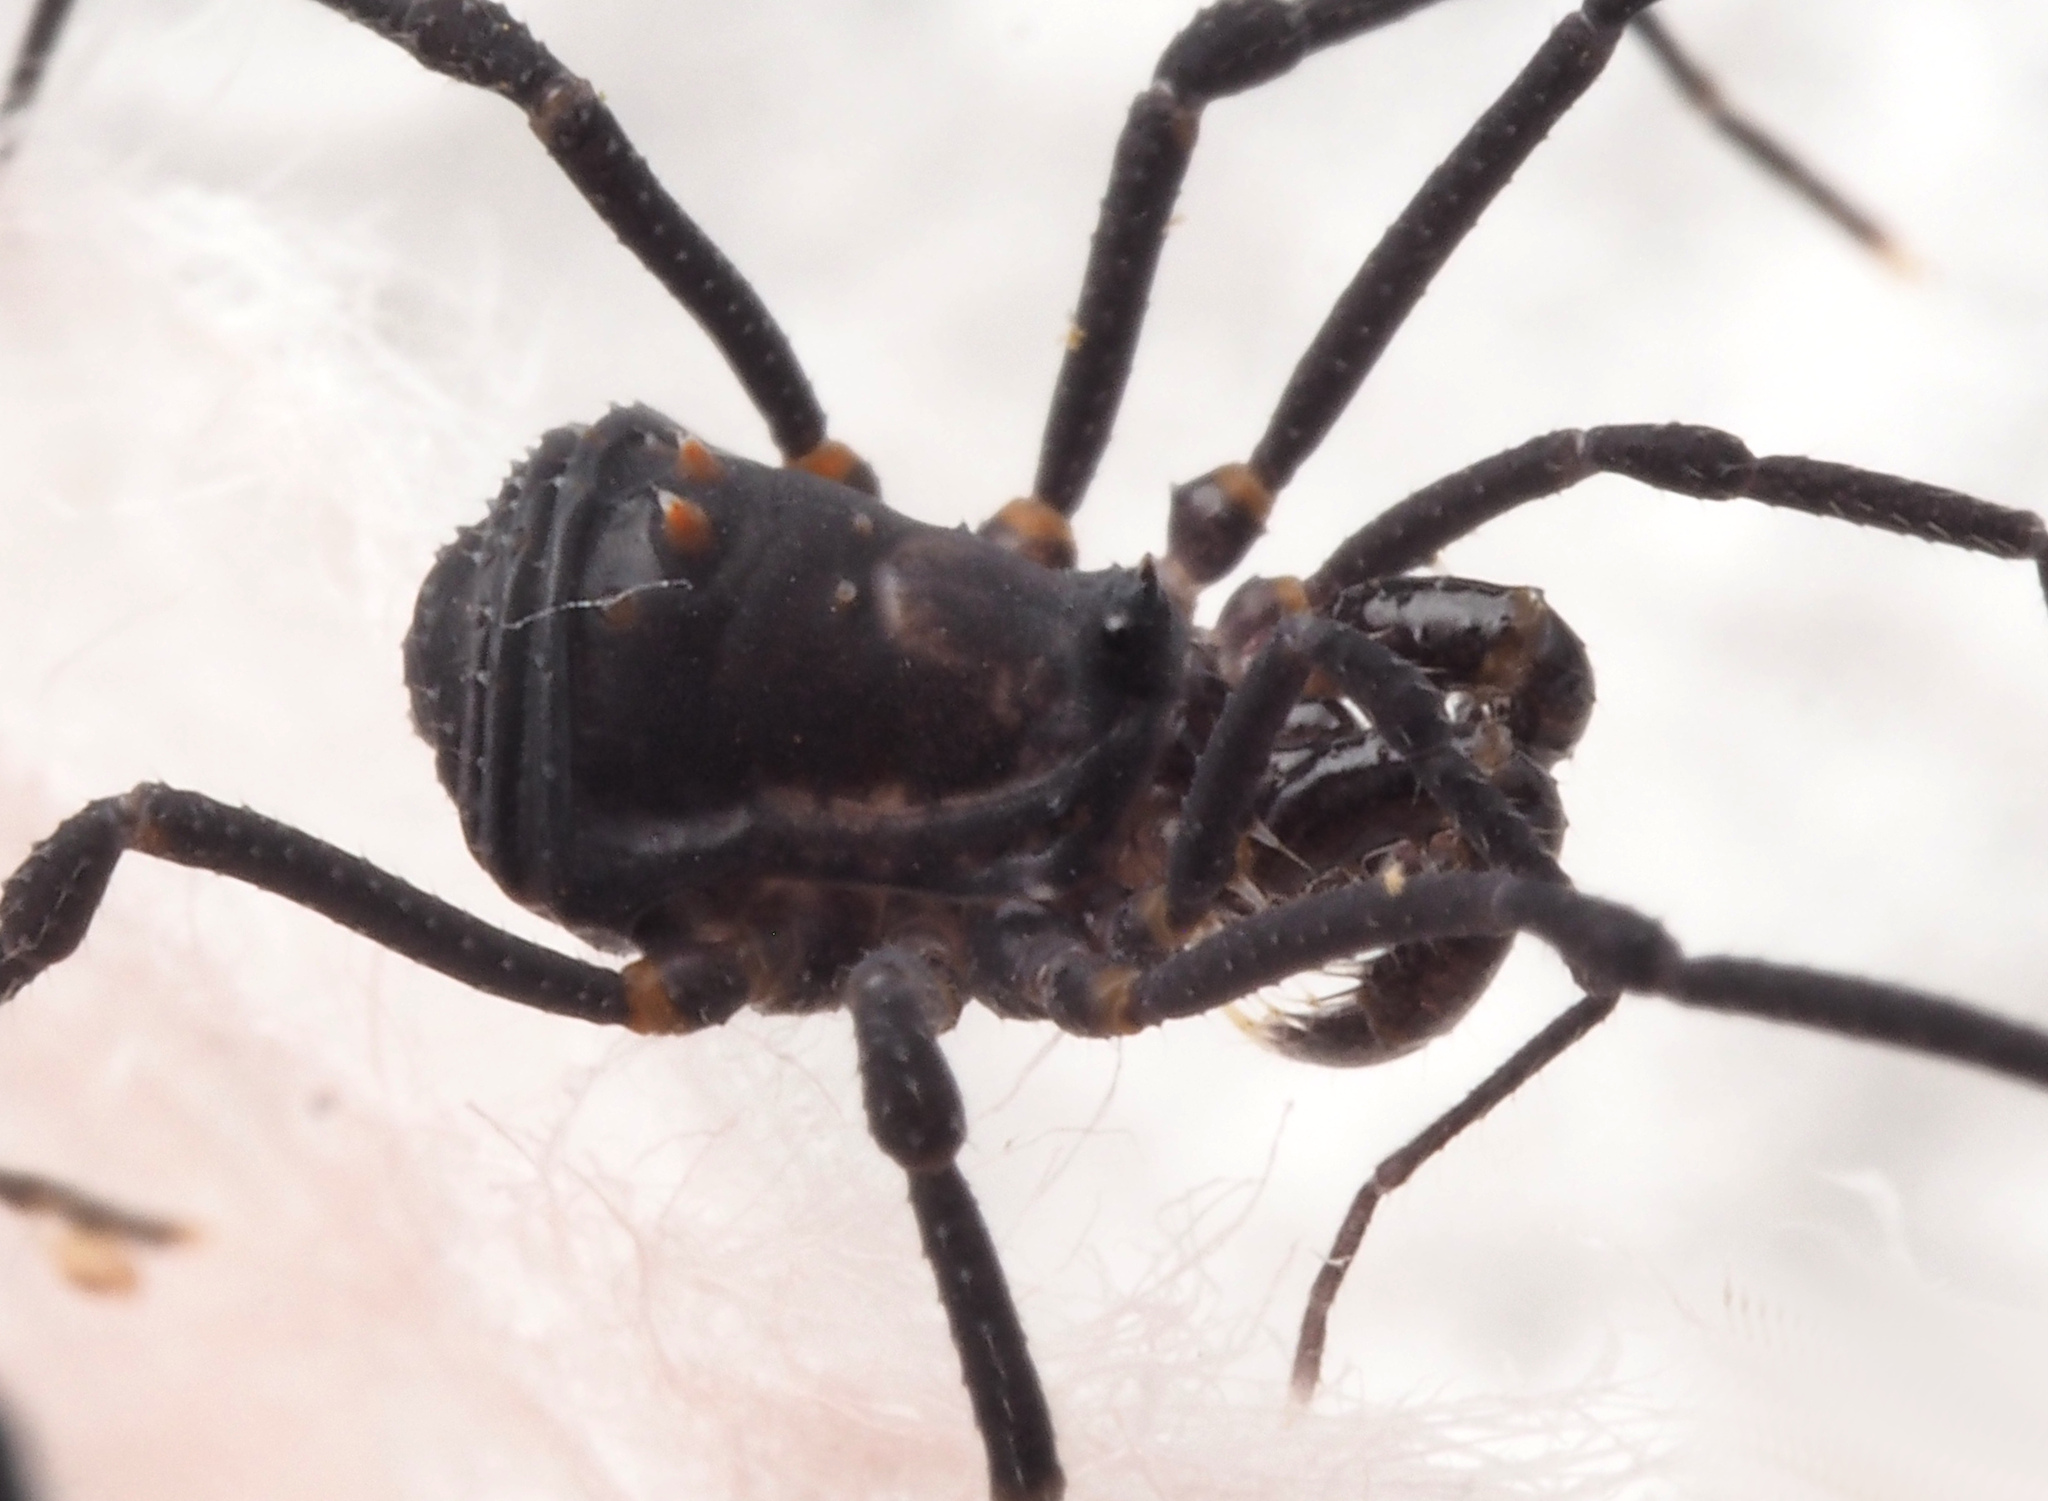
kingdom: Animalia
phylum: Arthropoda
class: Arachnida
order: Opiliones
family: Triaenonychidae
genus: Equitius
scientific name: Equitius
